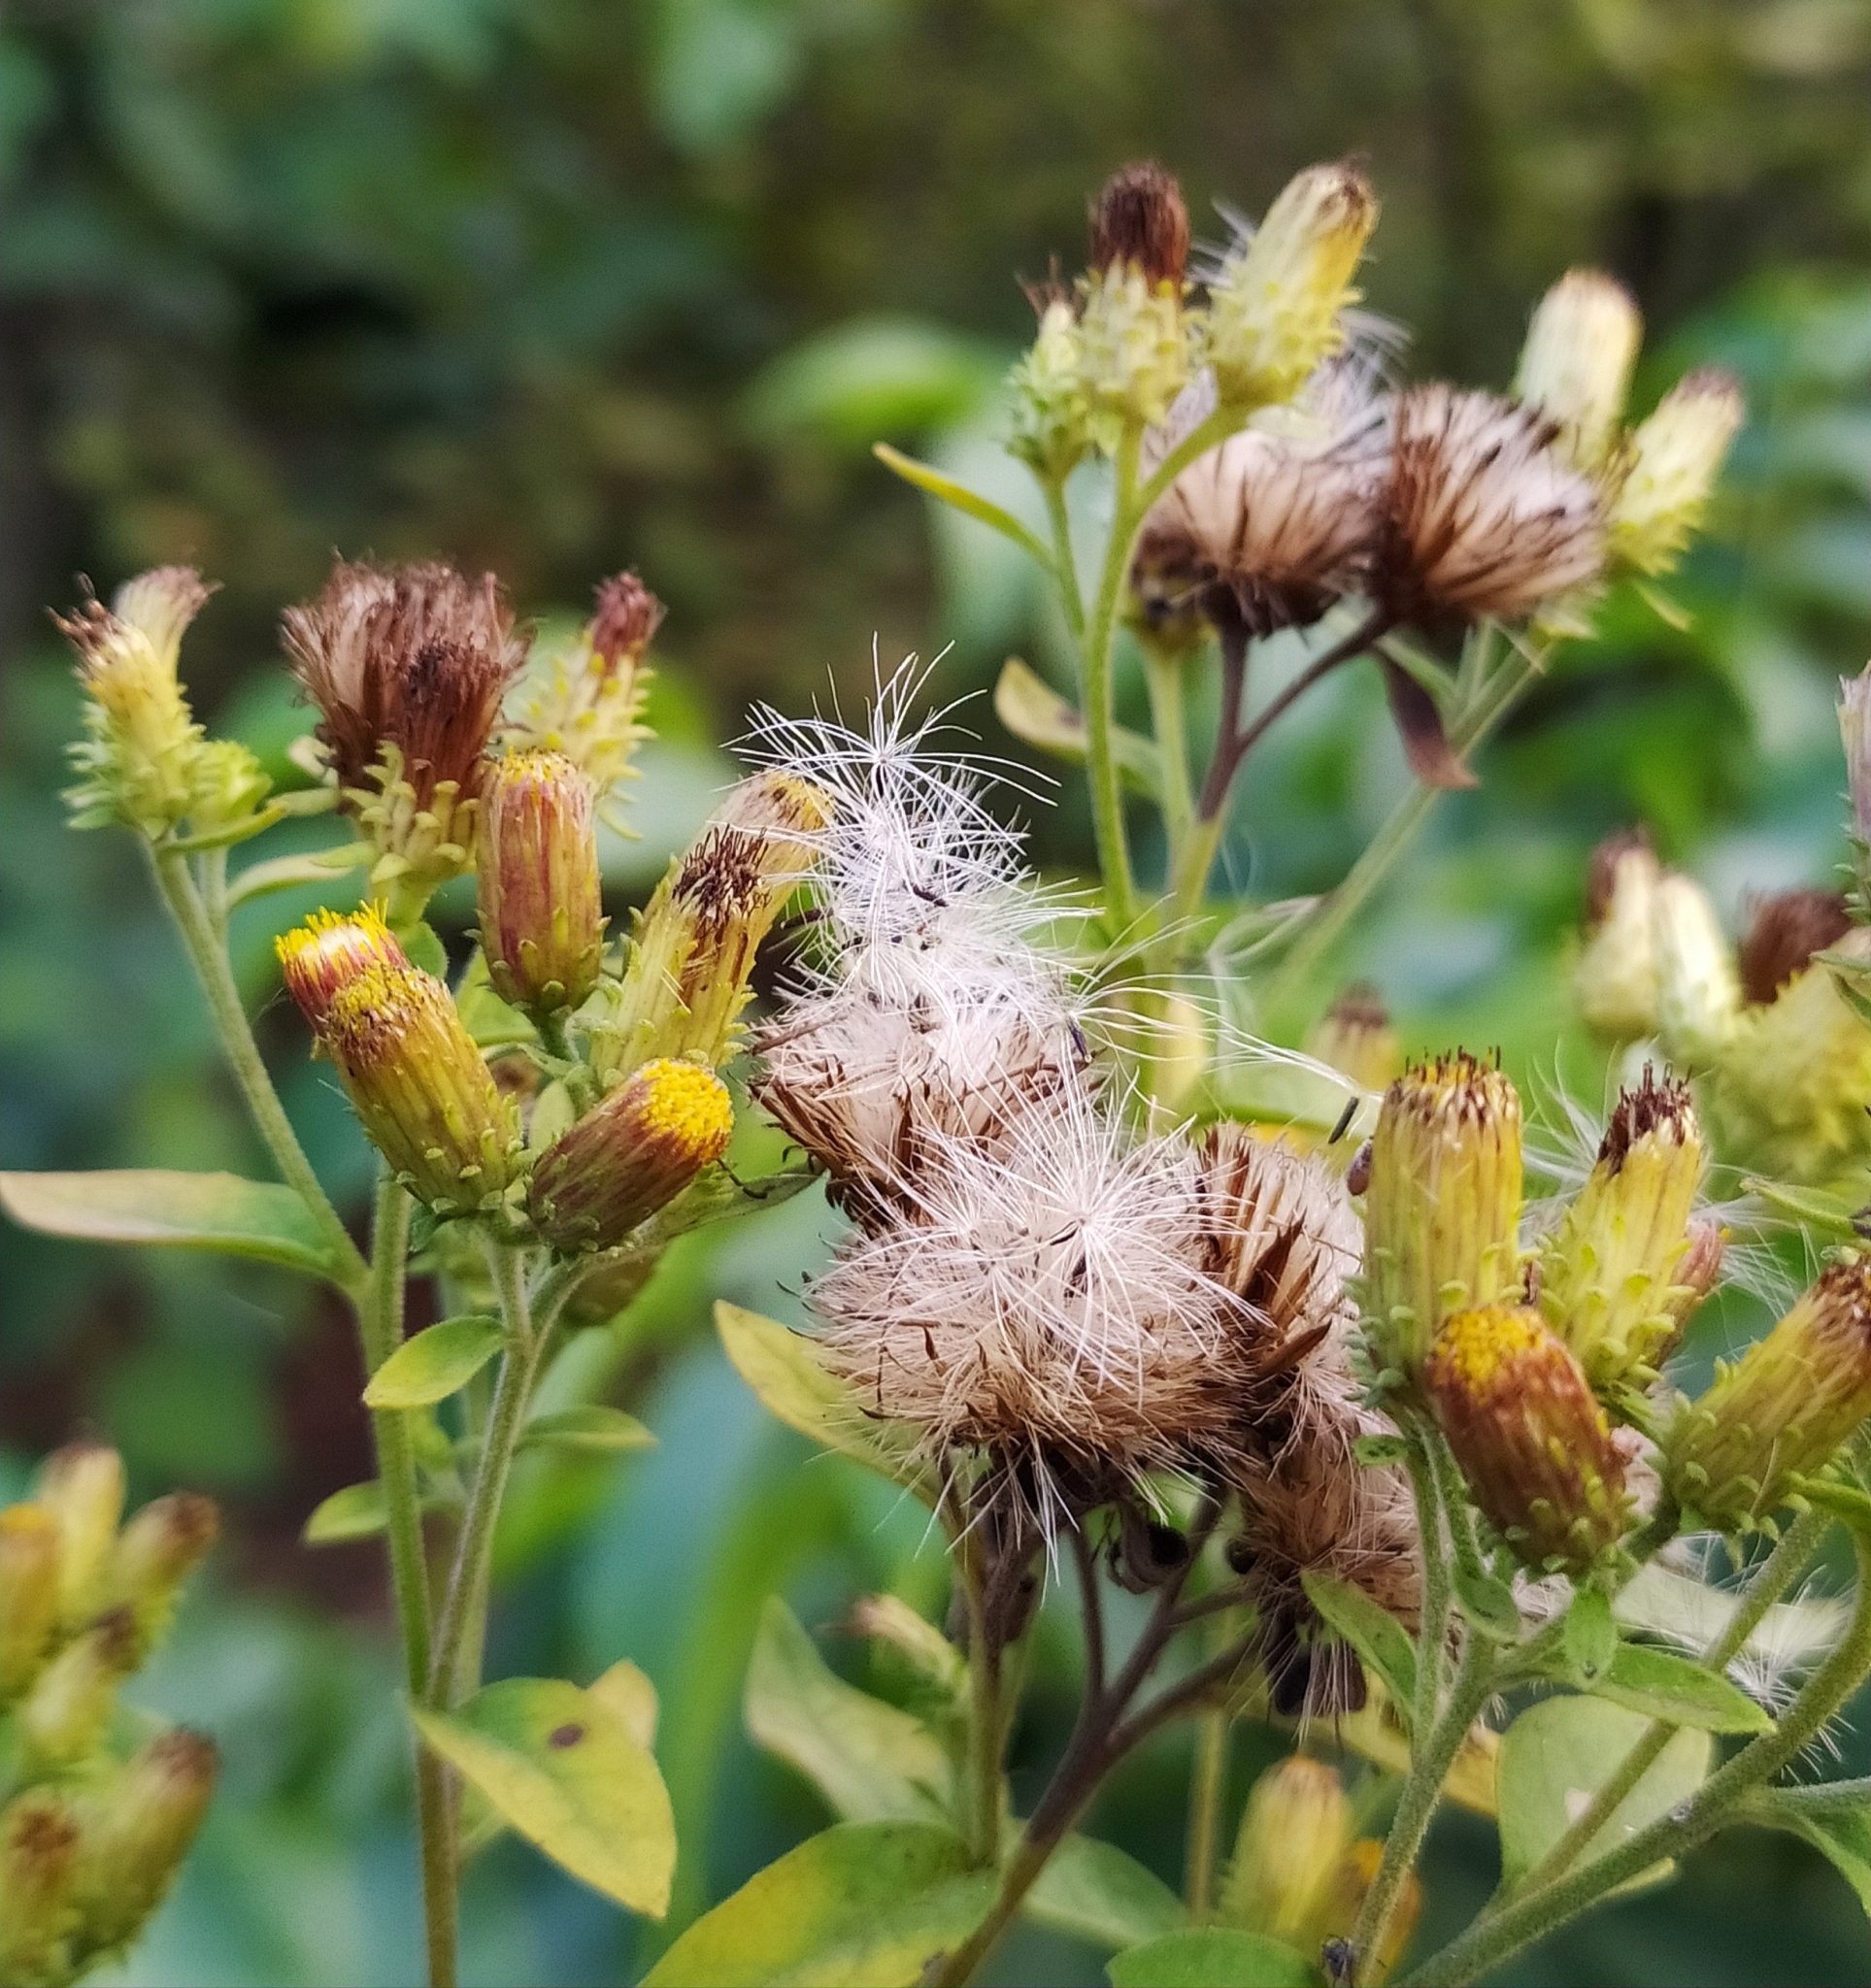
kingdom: Plantae
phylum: Tracheophyta
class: Magnoliopsida
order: Asterales
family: Asteraceae
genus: Pentanema
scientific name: Pentanema squarrosum
